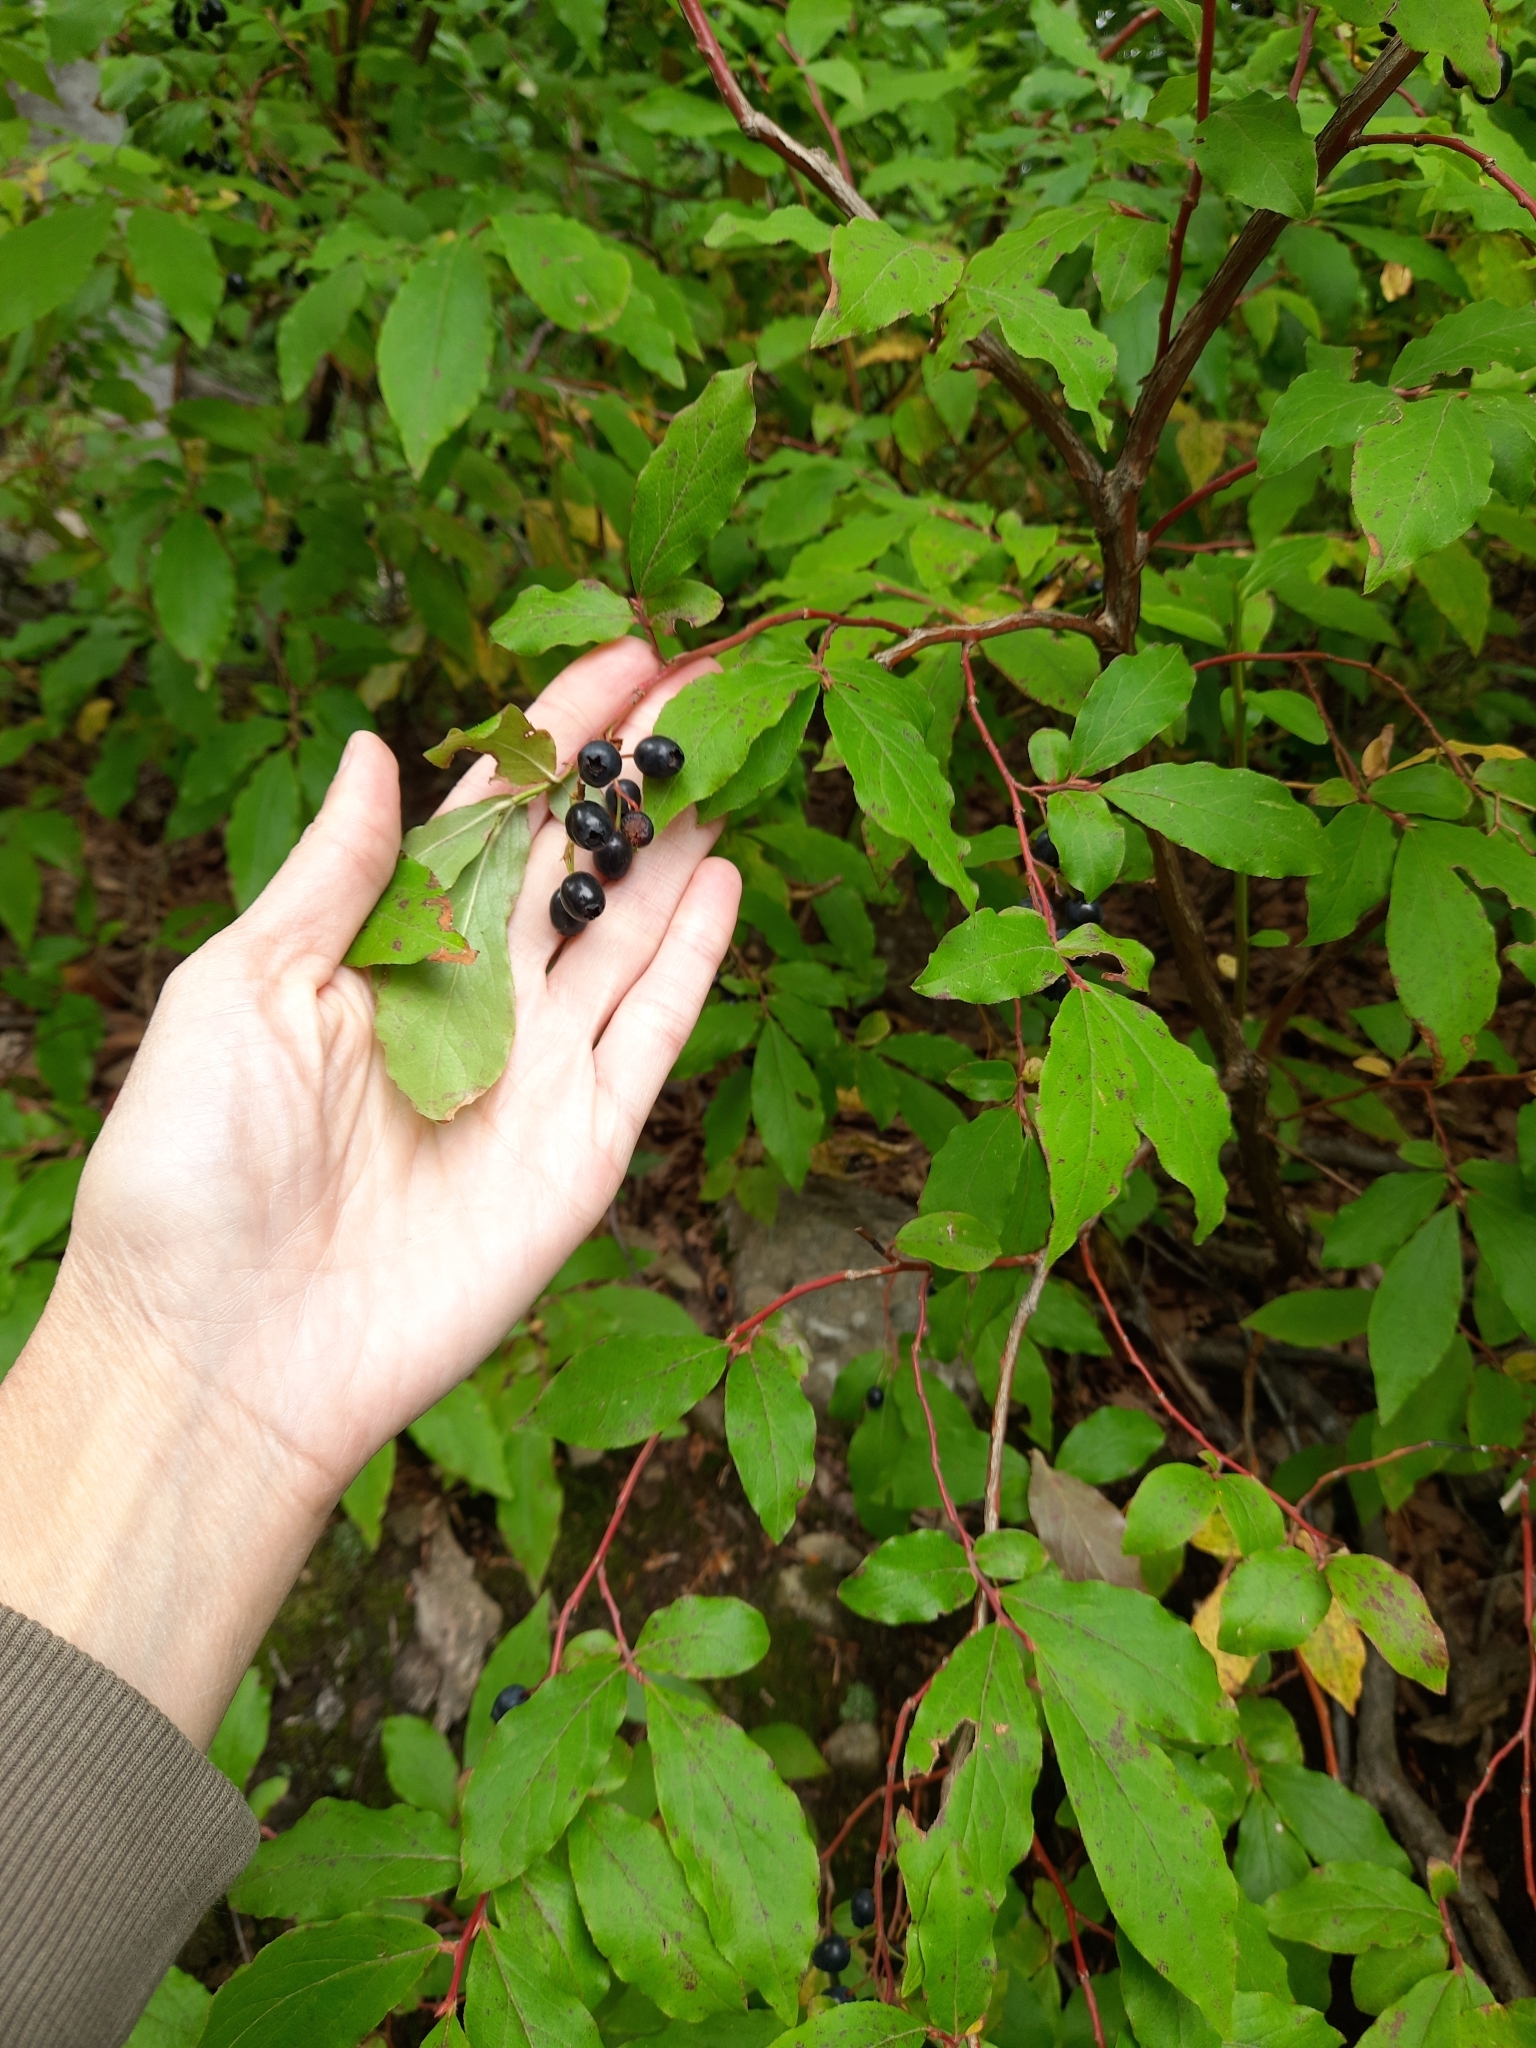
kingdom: Plantae
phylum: Tracheophyta
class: Magnoliopsida
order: Ericales
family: Ericaceae
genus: Vaccinium
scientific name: Vaccinium arctostaphylos
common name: Caucasian whortleberry
